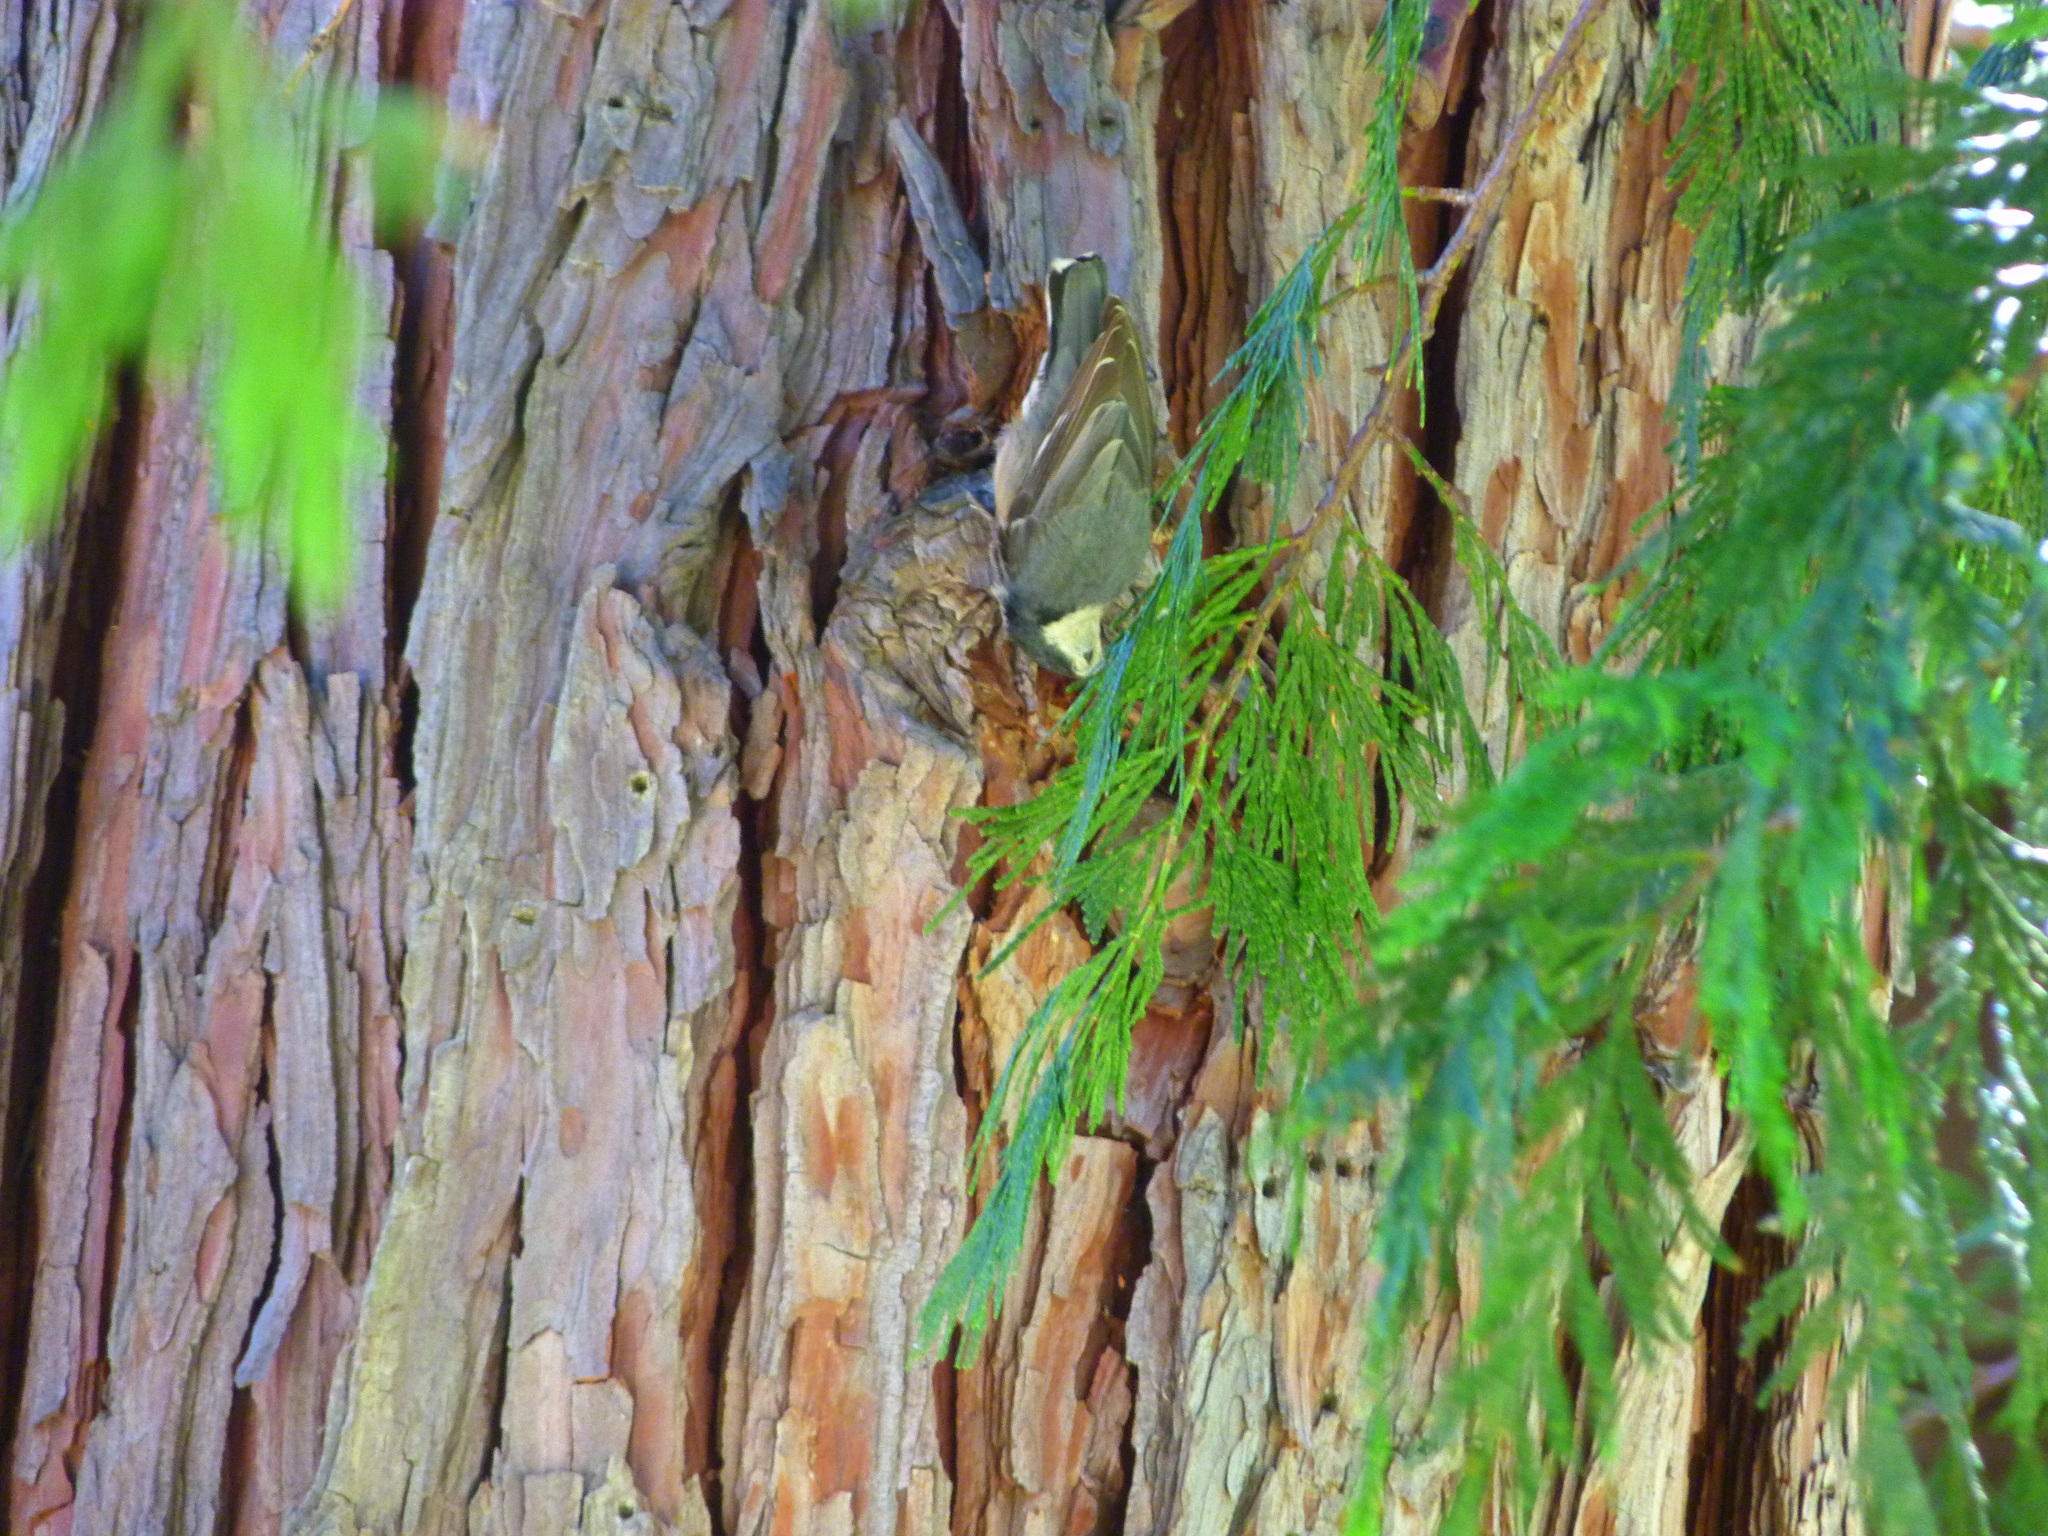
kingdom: Animalia
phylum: Chordata
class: Aves
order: Passeriformes
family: Sittidae
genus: Sitta
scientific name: Sitta carolinensis
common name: White-breasted nuthatch
